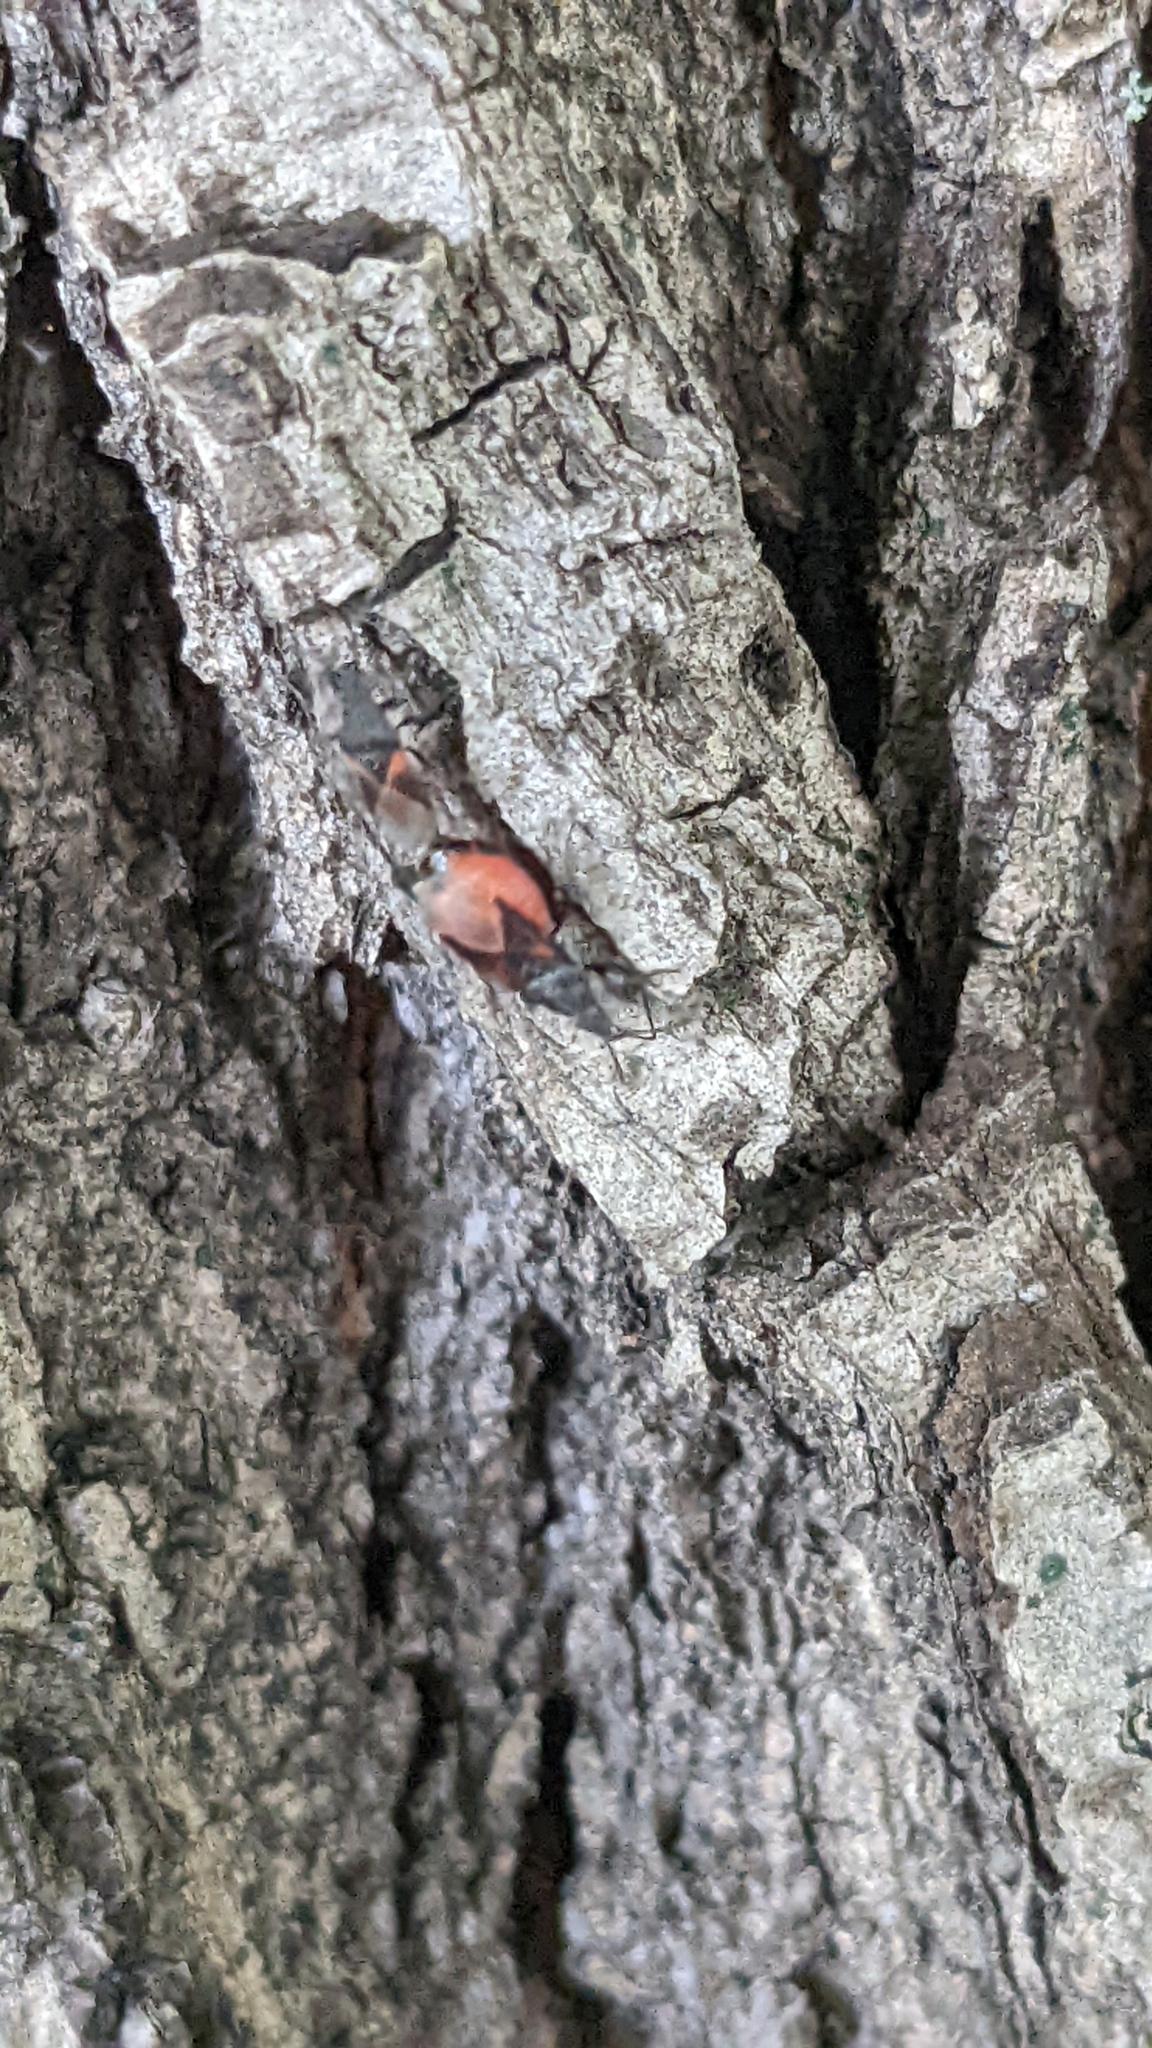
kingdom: Animalia
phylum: Arthropoda
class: Insecta
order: Hemiptera
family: Oxycarenidae
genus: Oxycarenus
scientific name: Oxycarenus lavaterae
